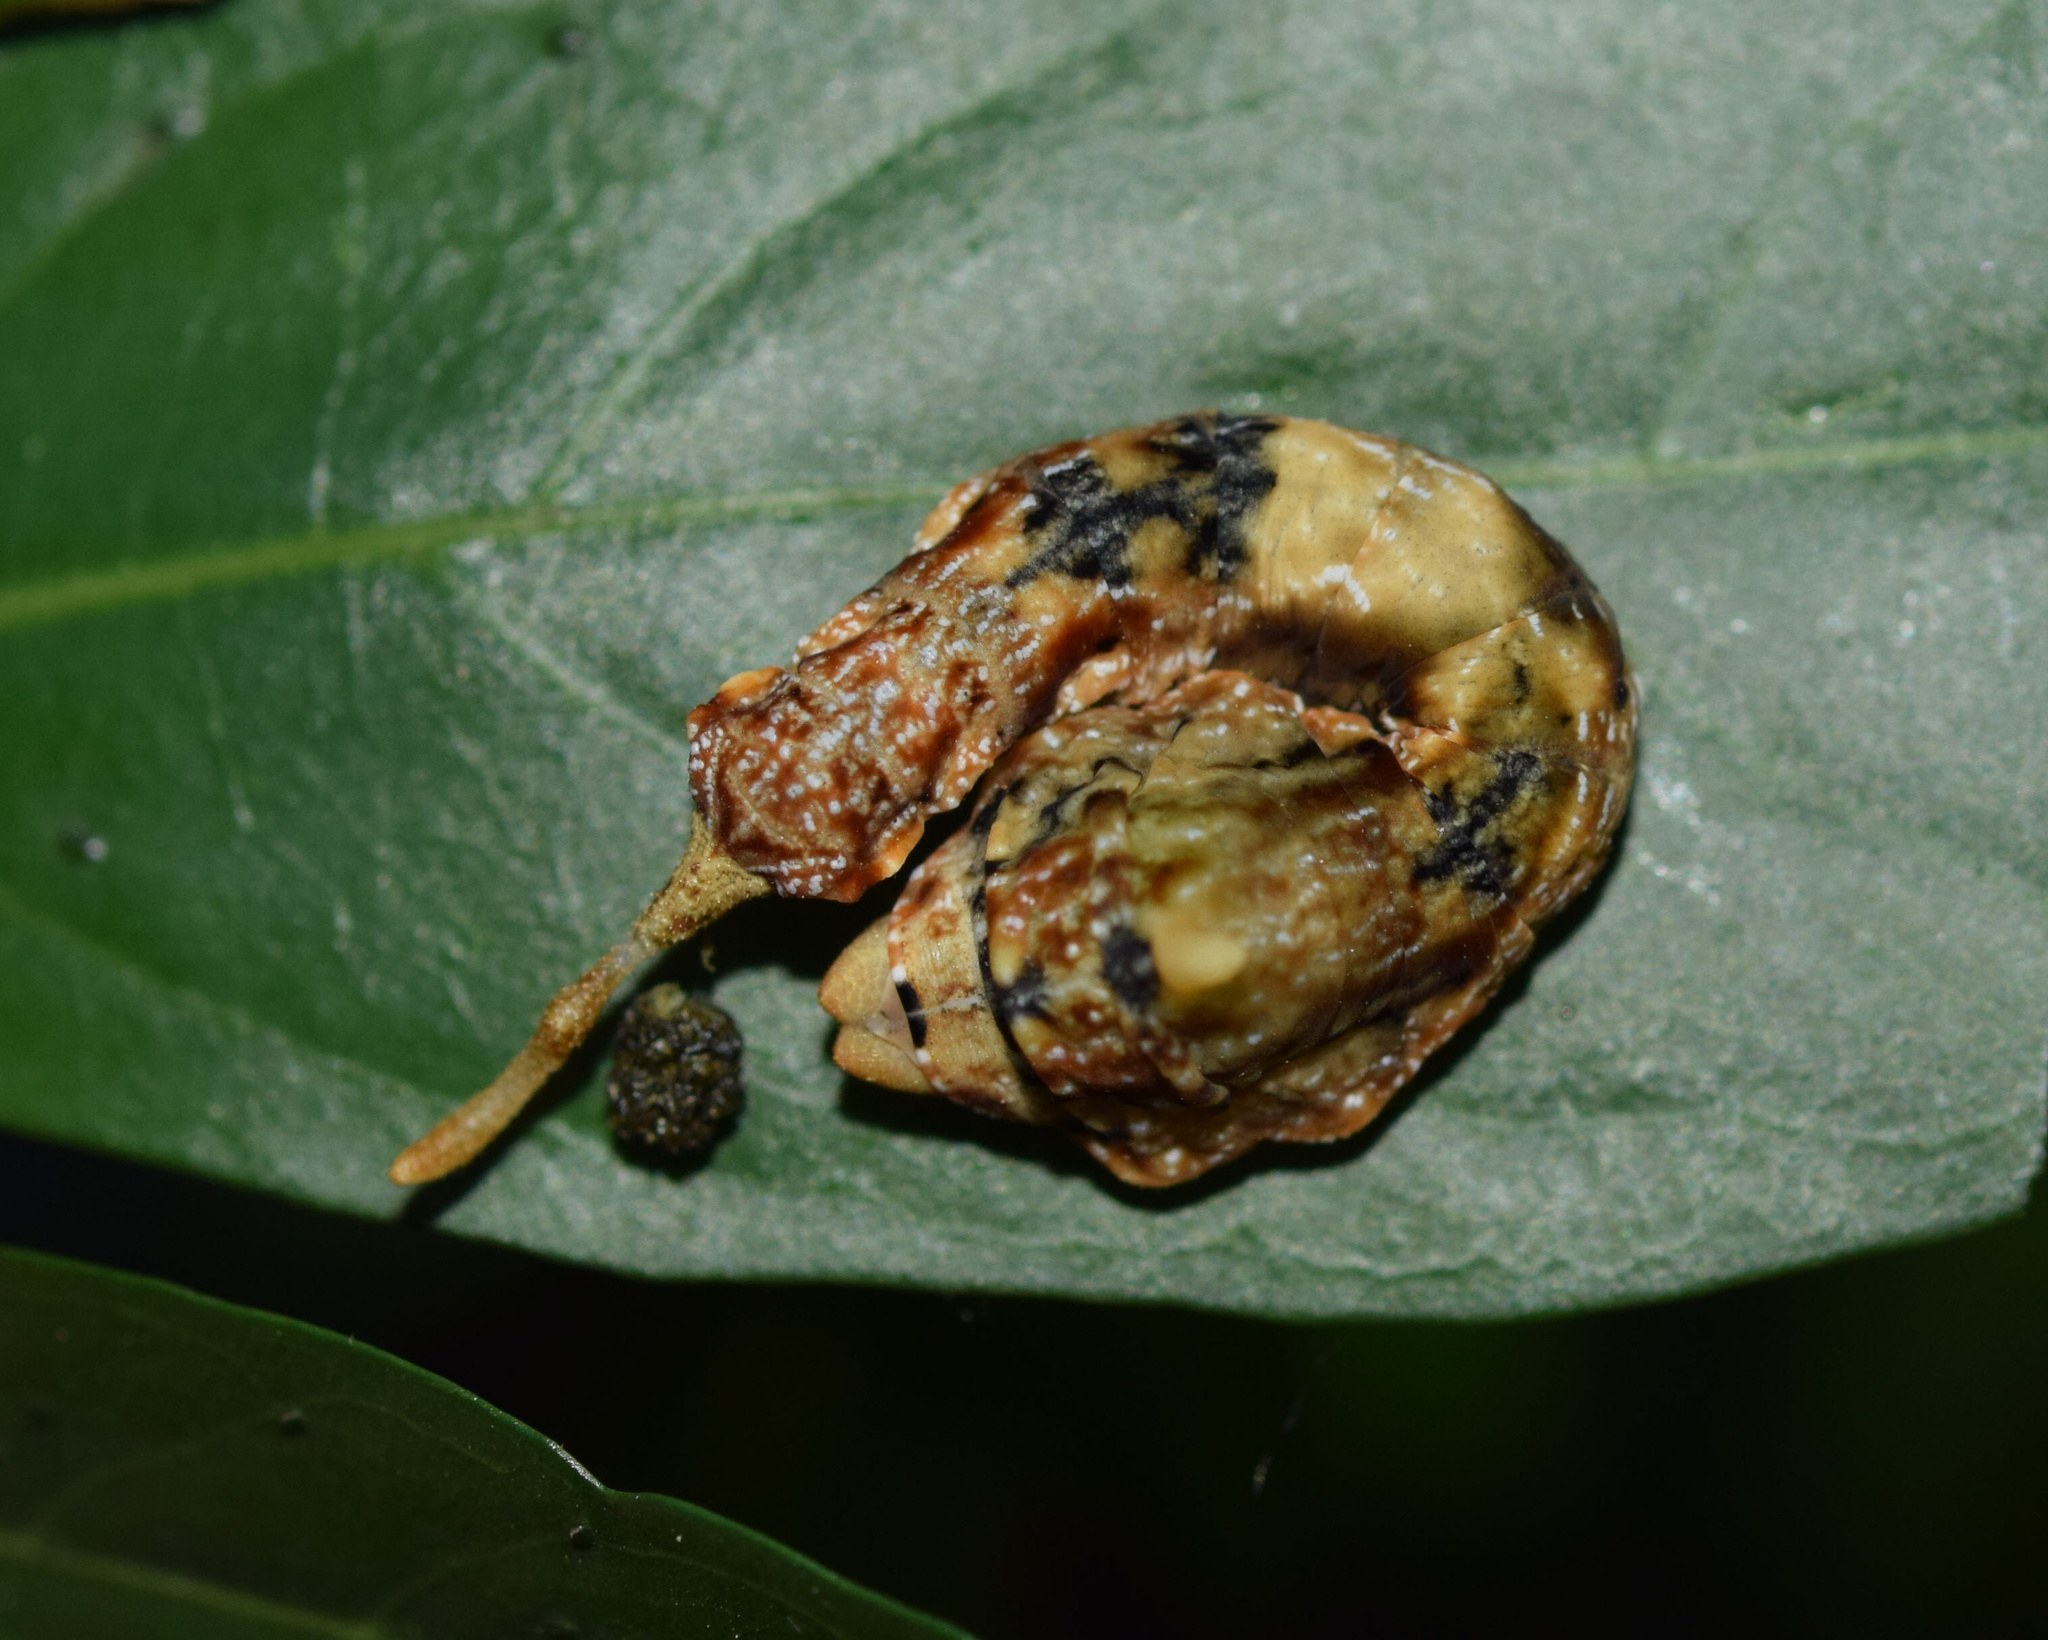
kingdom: Animalia
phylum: Arthropoda
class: Insecta
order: Lepidoptera
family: Drepanidae
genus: Negera
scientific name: Negera natalensis
